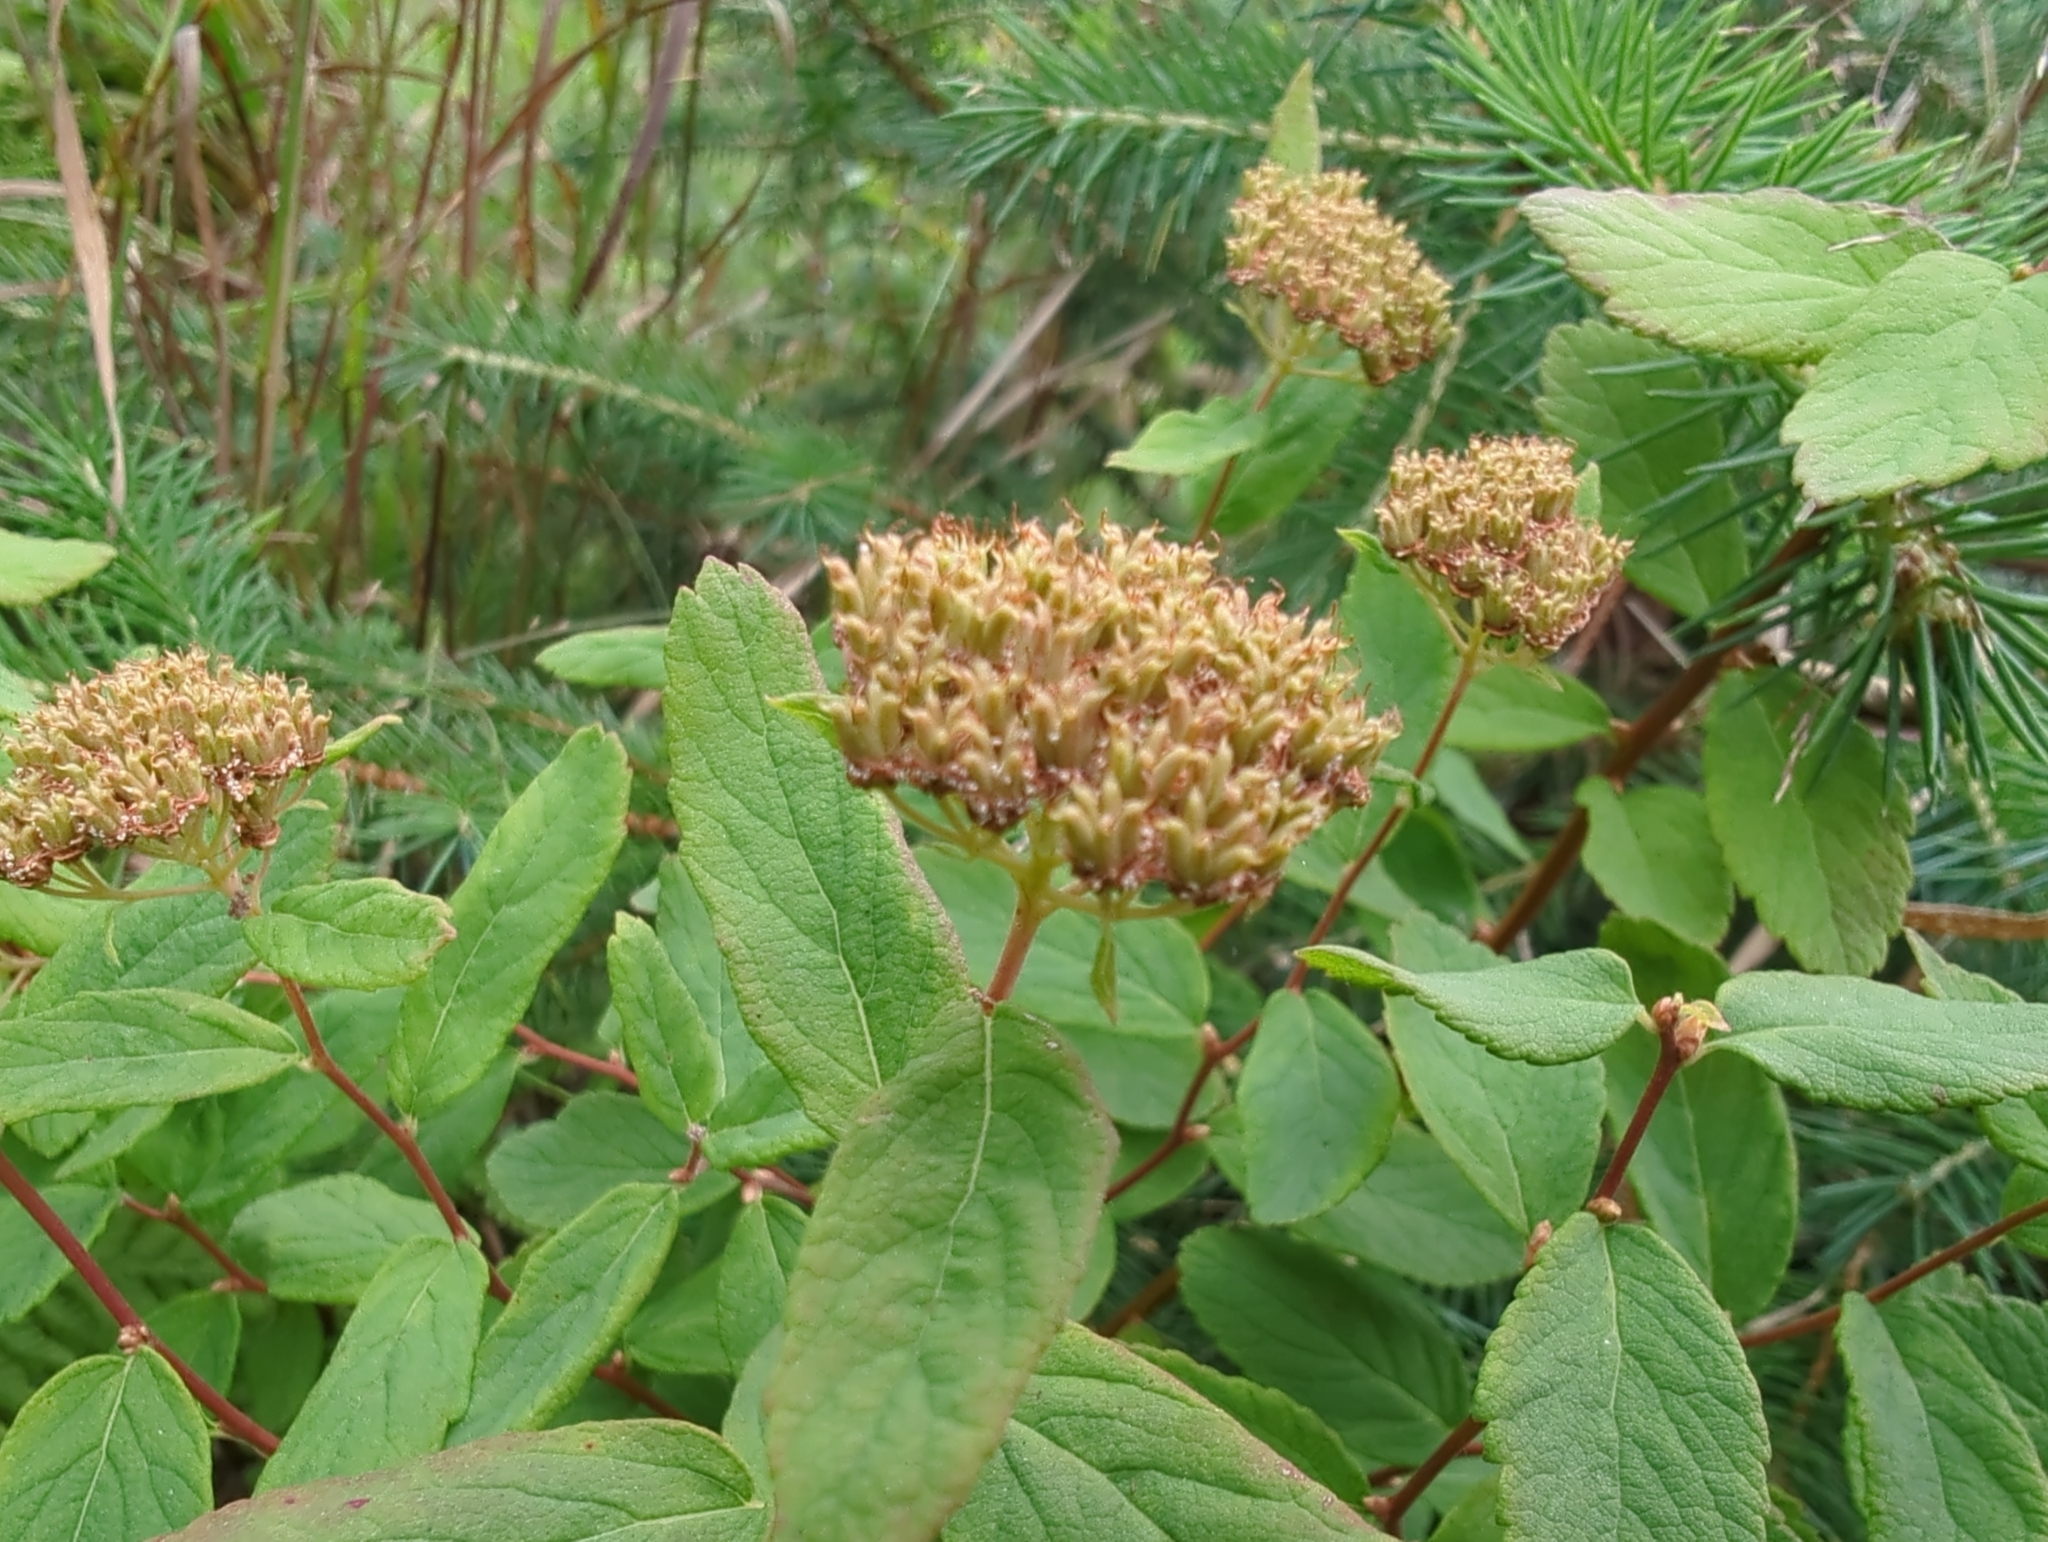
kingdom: Plantae
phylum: Tracheophyta
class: Magnoliopsida
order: Rosales
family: Rosaceae
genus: Spiraea
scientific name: Spiraea stevenii
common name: Steven's meadowsweet
